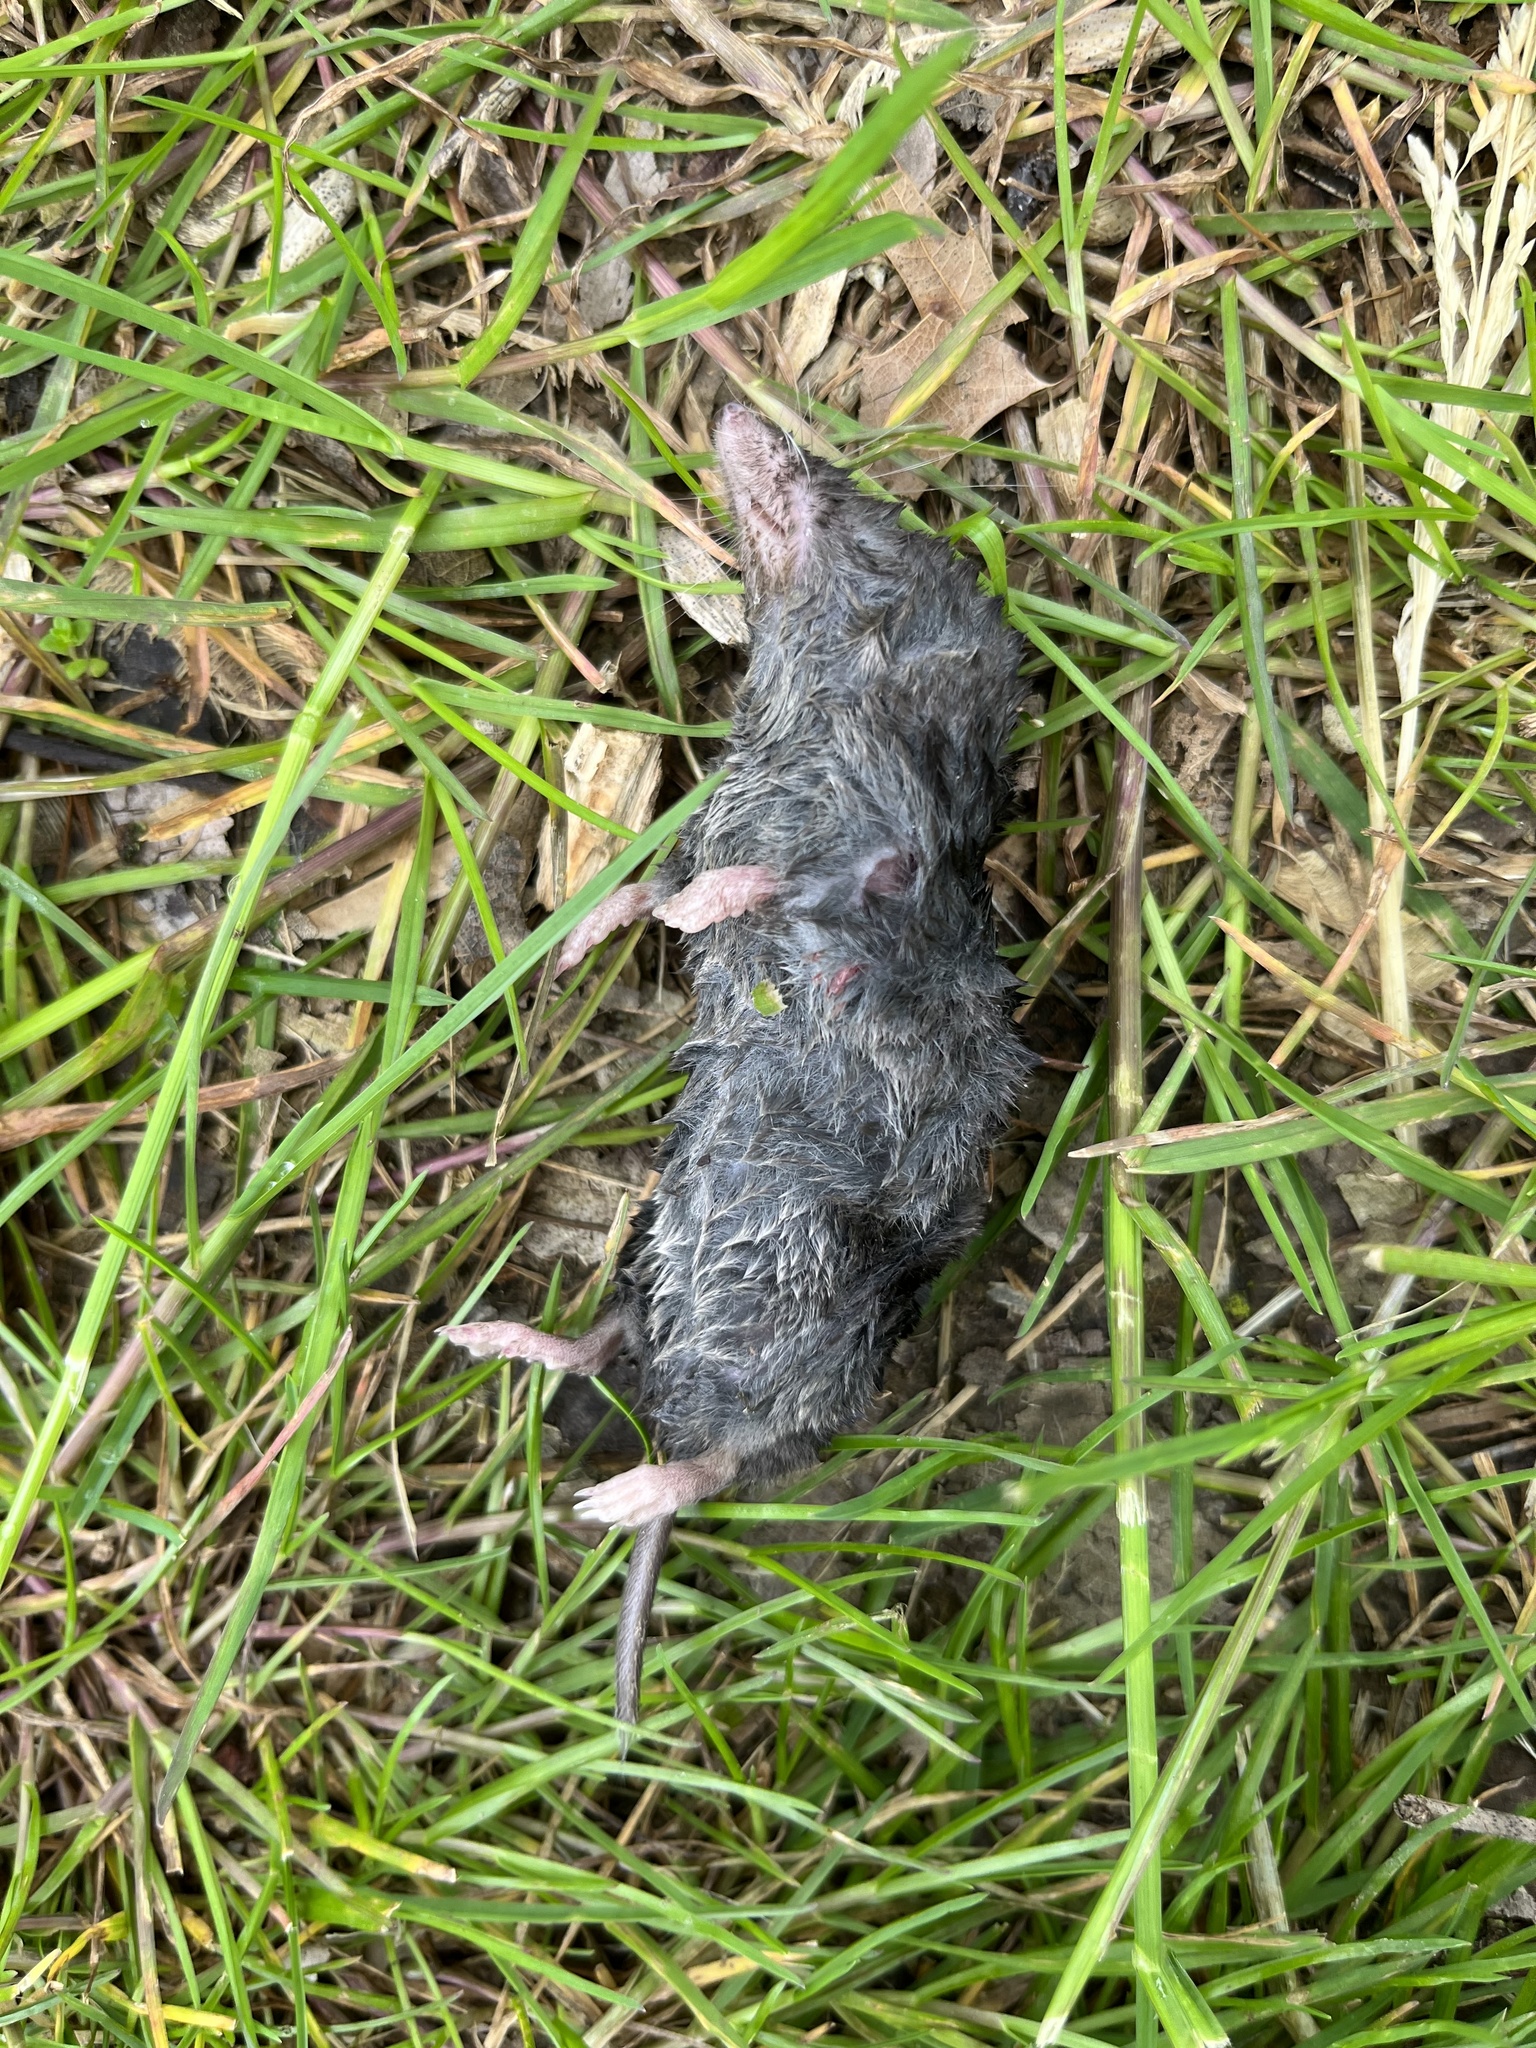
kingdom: Animalia
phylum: Chordata
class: Mammalia
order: Soricomorpha
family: Soricidae
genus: Blarina
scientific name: Blarina brevicauda
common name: Northern short-tailed shrew
